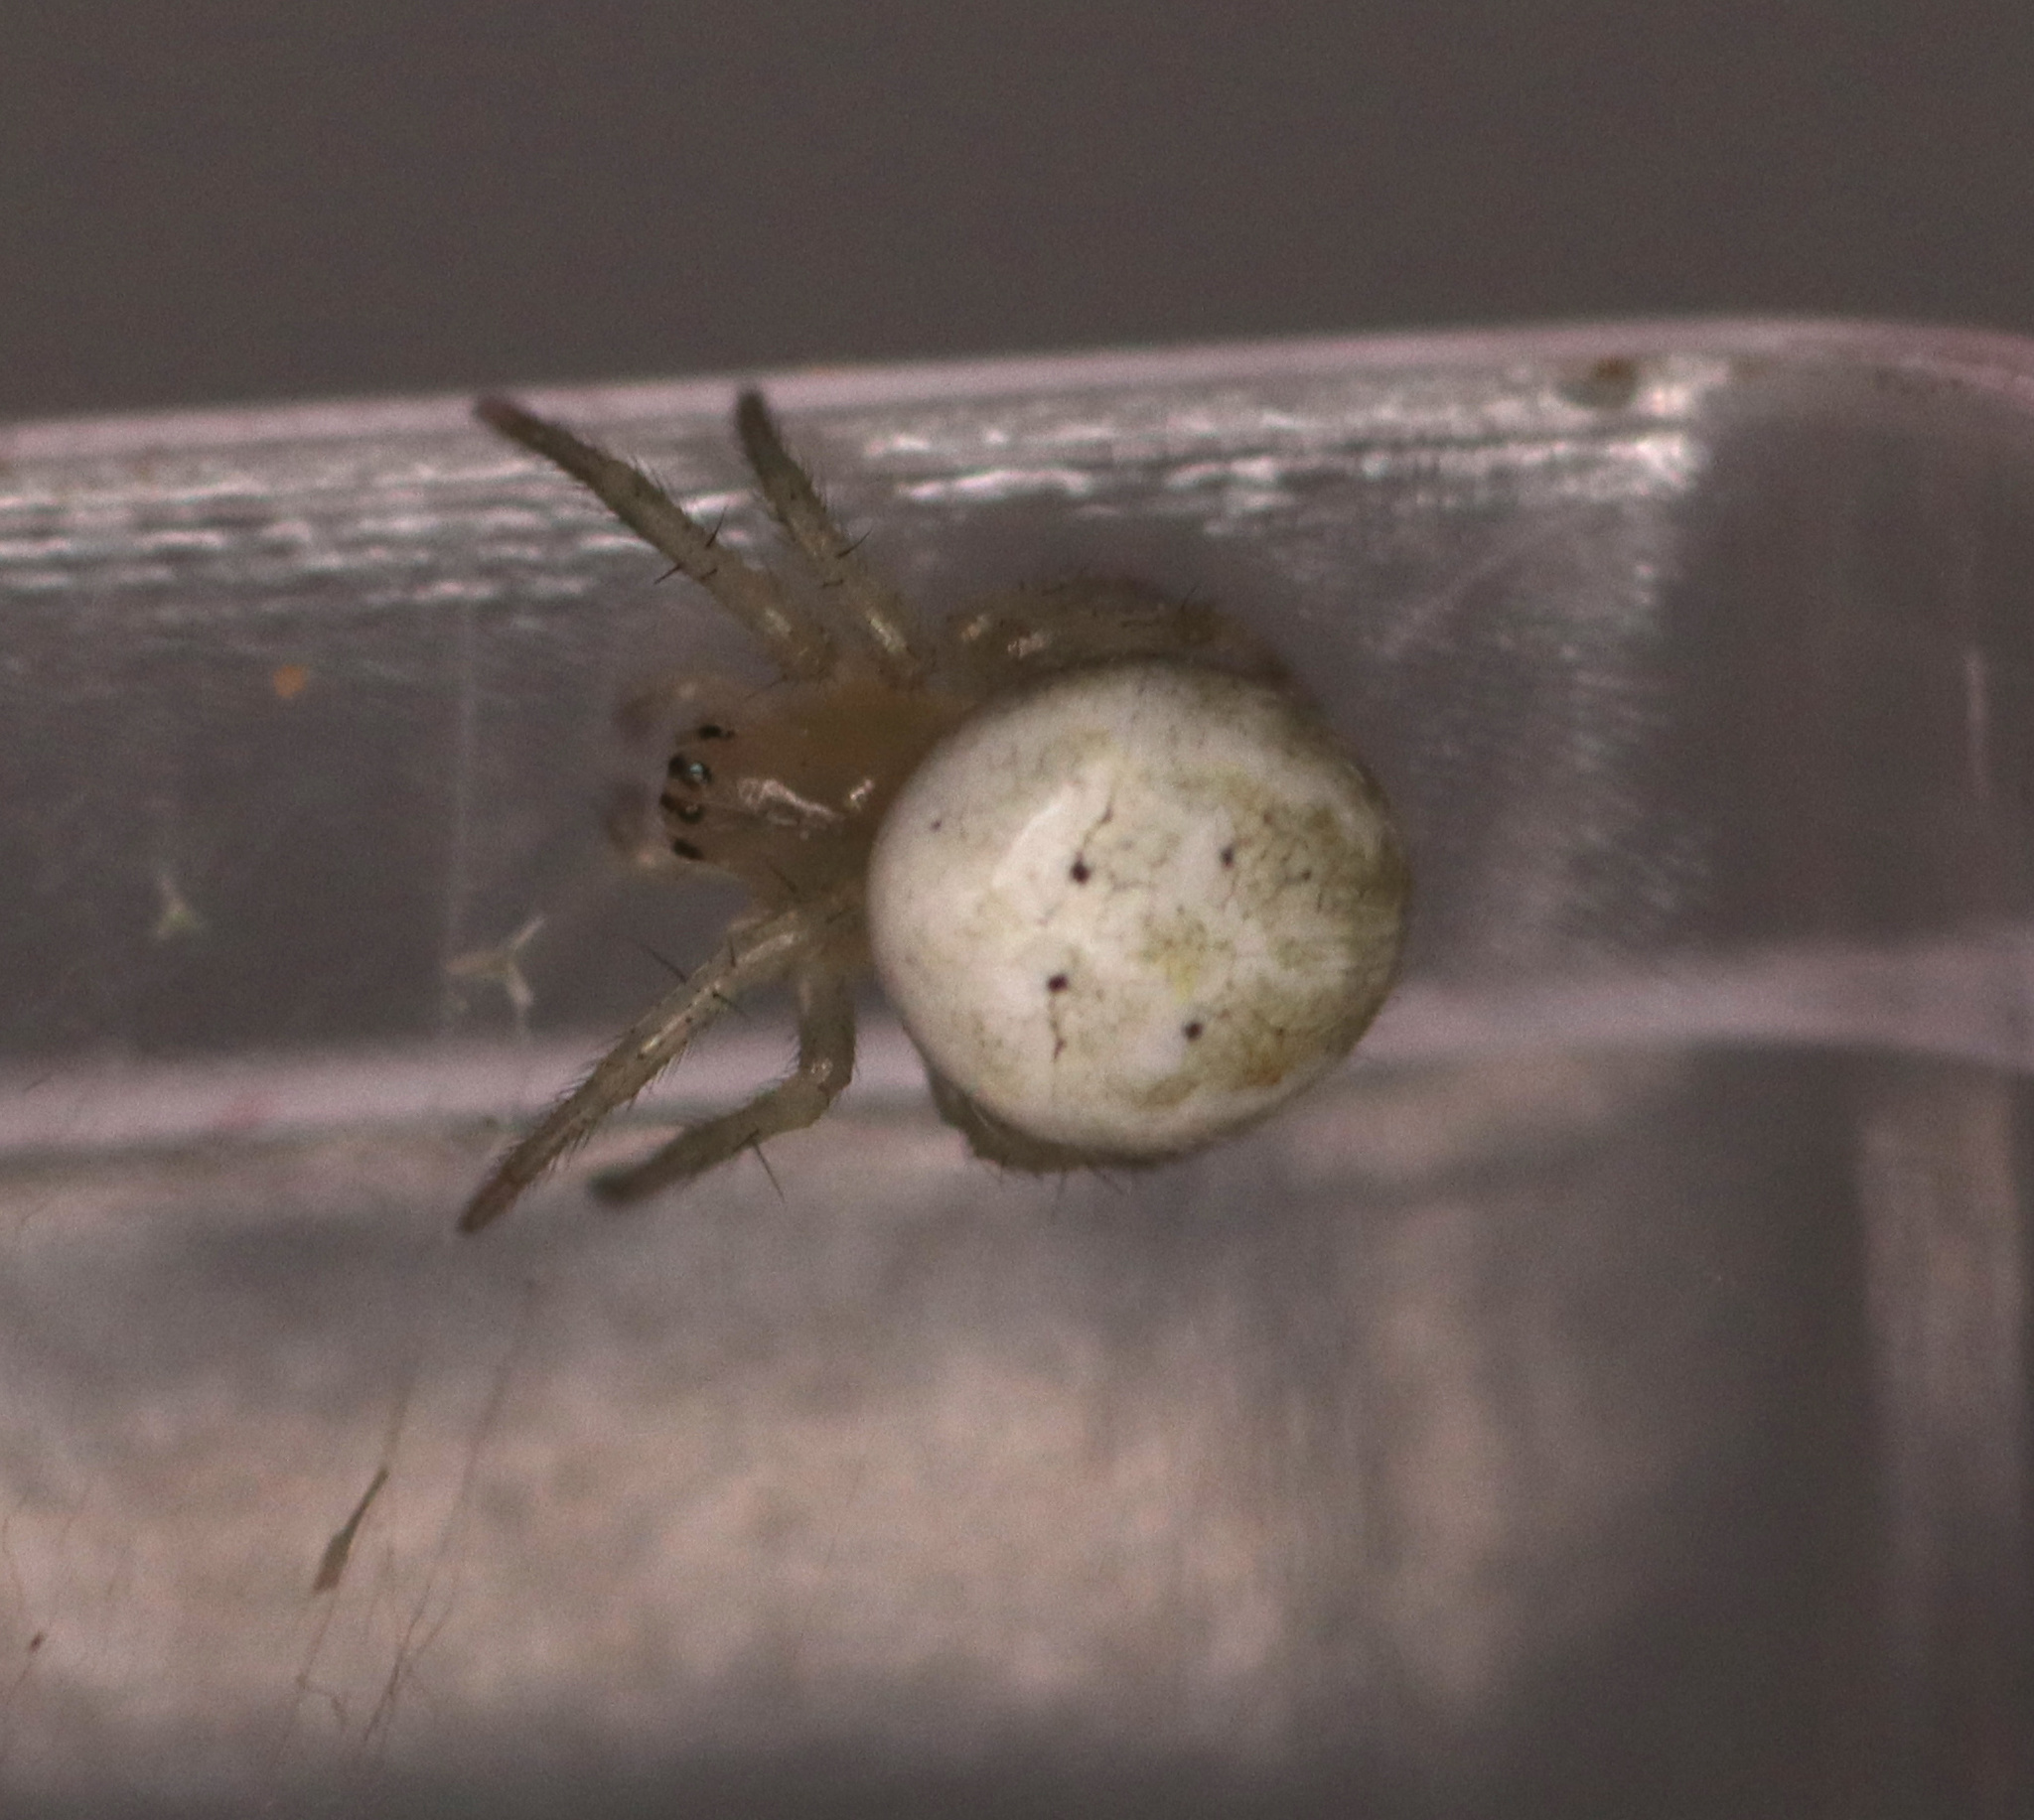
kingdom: Animalia
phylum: Arthropoda
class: Arachnida
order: Araneae
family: Araneidae
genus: Araniella
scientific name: Araniella displicata
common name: Sixspotted orb weaver
